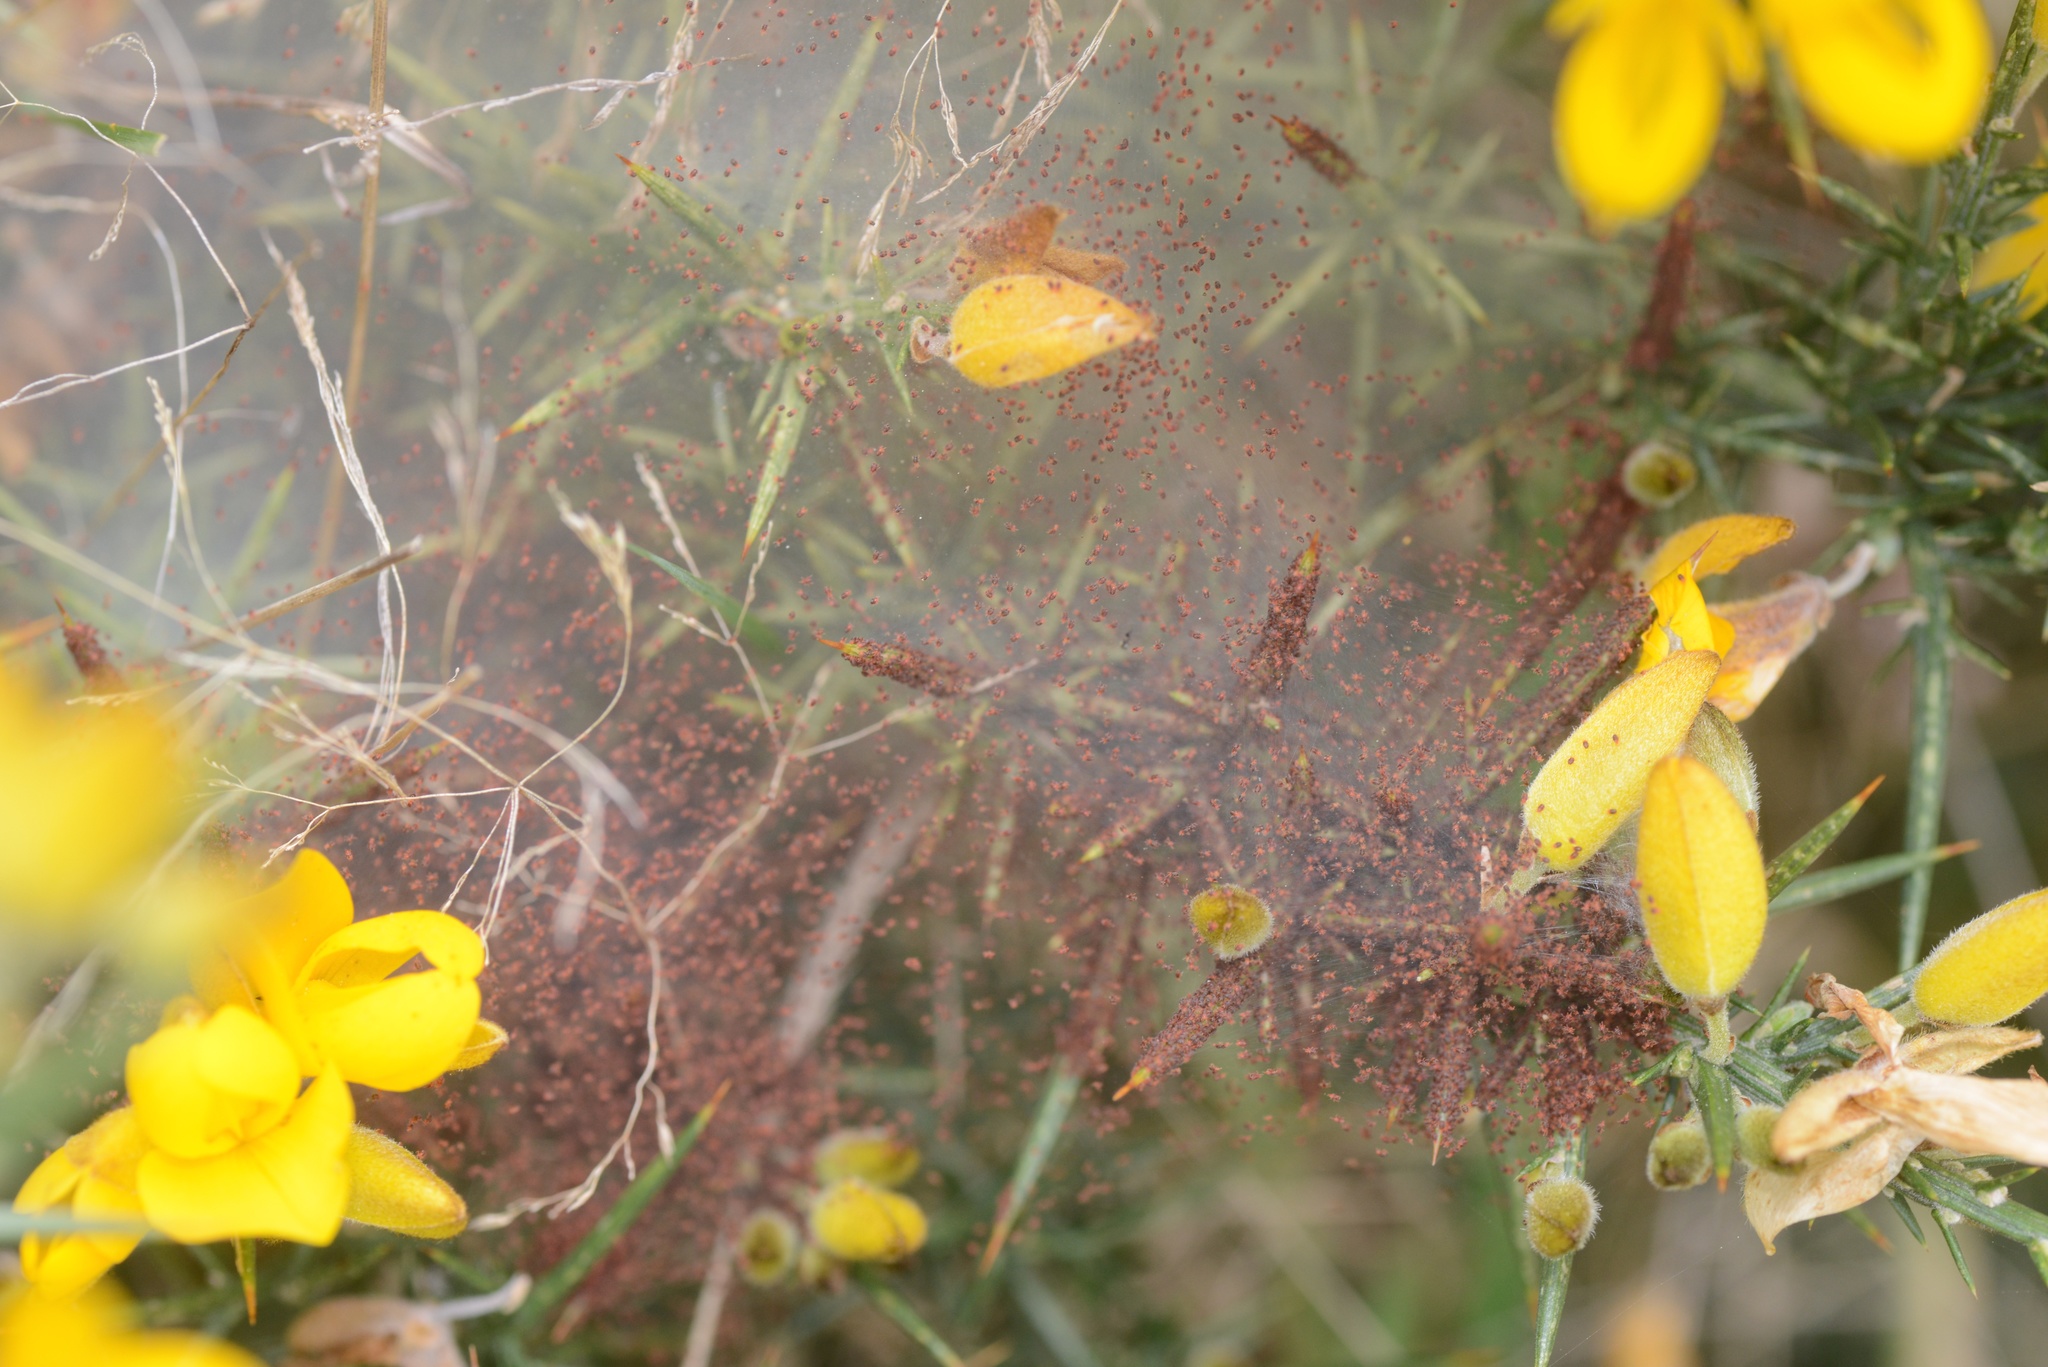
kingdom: Animalia
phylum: Arthropoda
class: Arachnida
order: Trombidiformes
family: Tetranychidae
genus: Tetranychus
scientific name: Tetranychus lintearius
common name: Gorse spider mite
